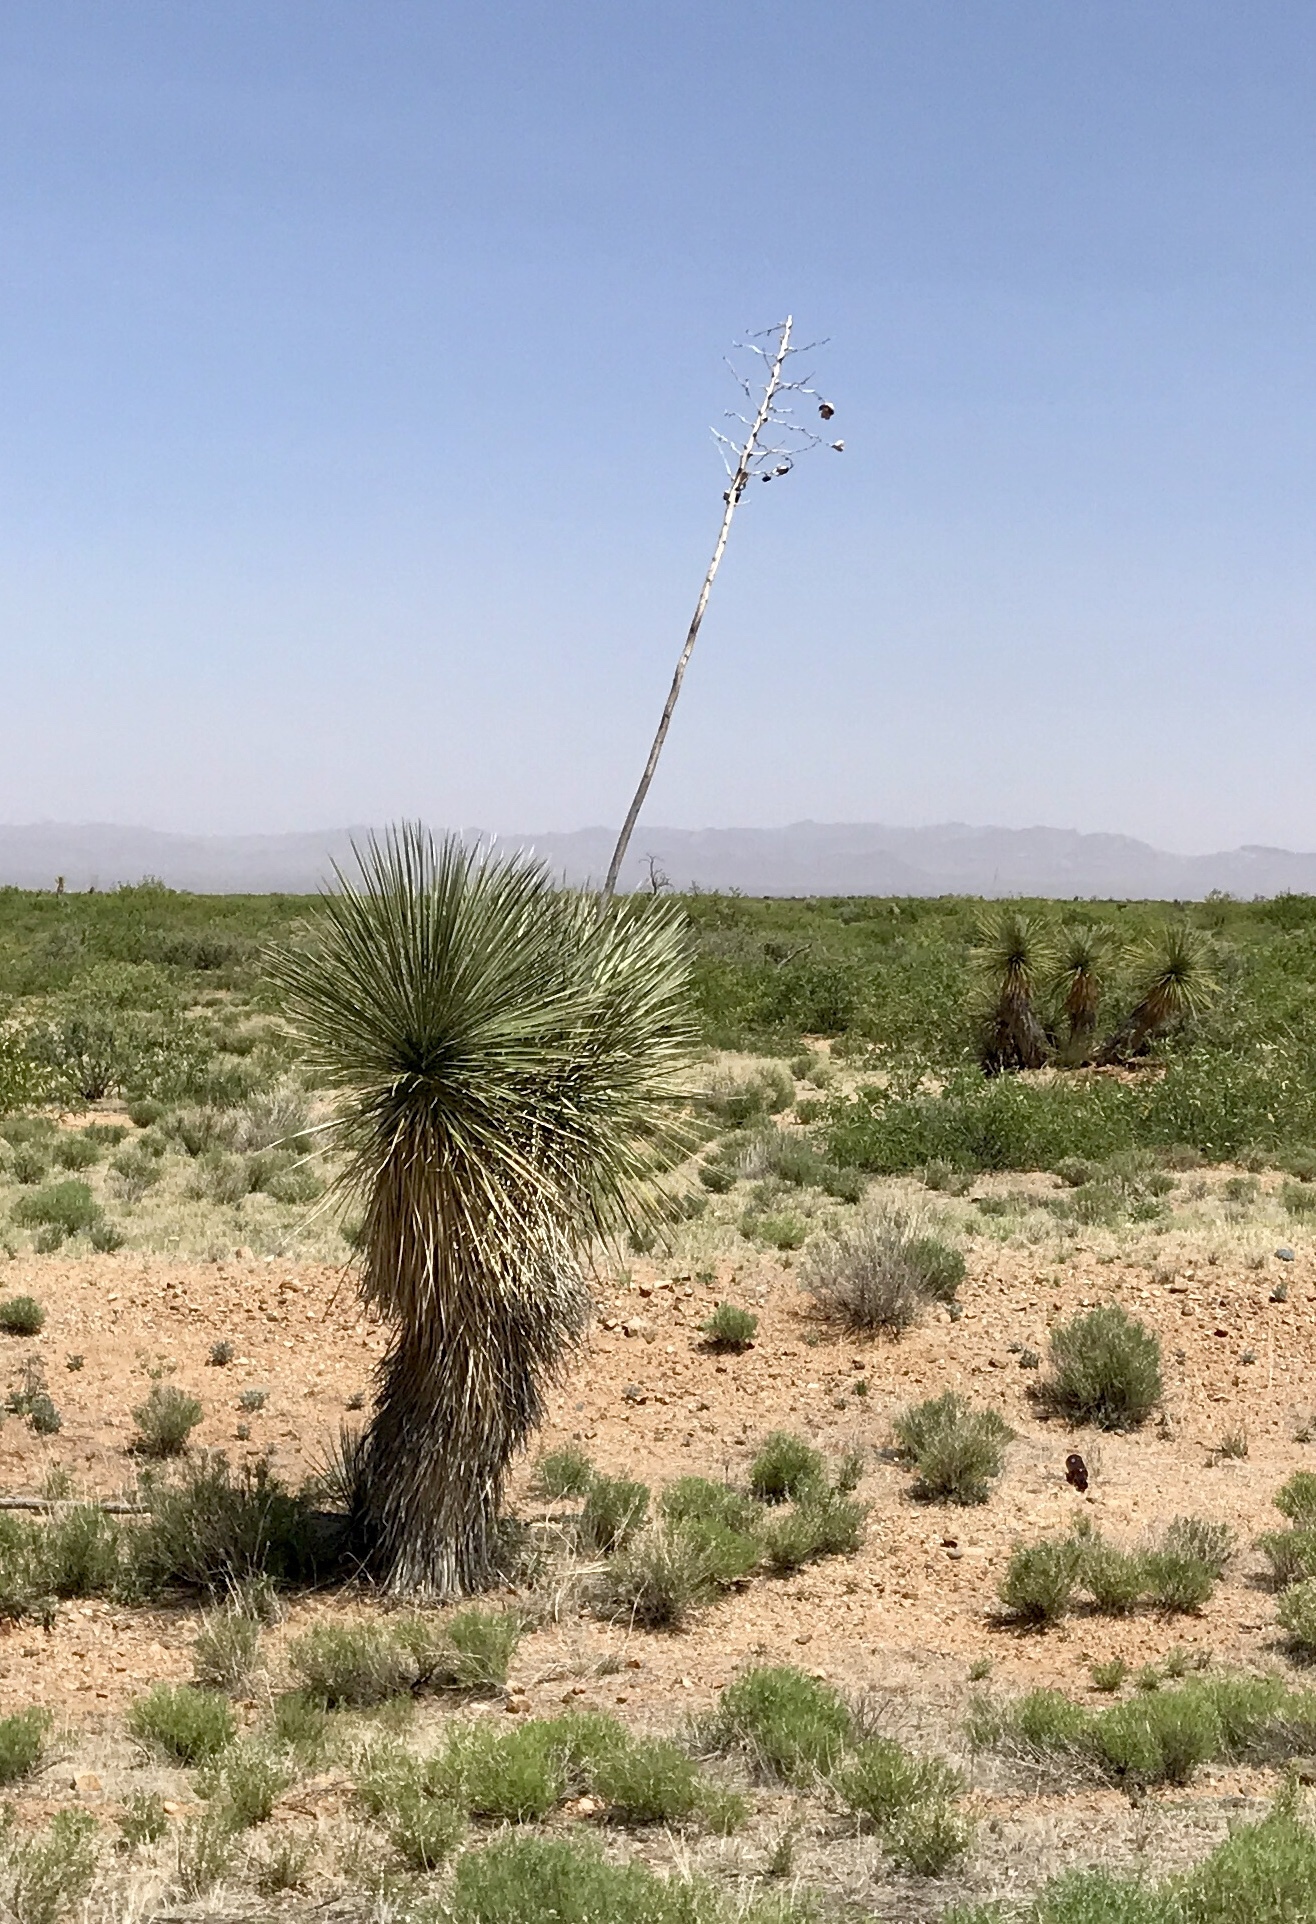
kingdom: Plantae
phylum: Tracheophyta
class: Liliopsida
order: Asparagales
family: Asparagaceae
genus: Yucca
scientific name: Yucca elata
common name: Palmella
